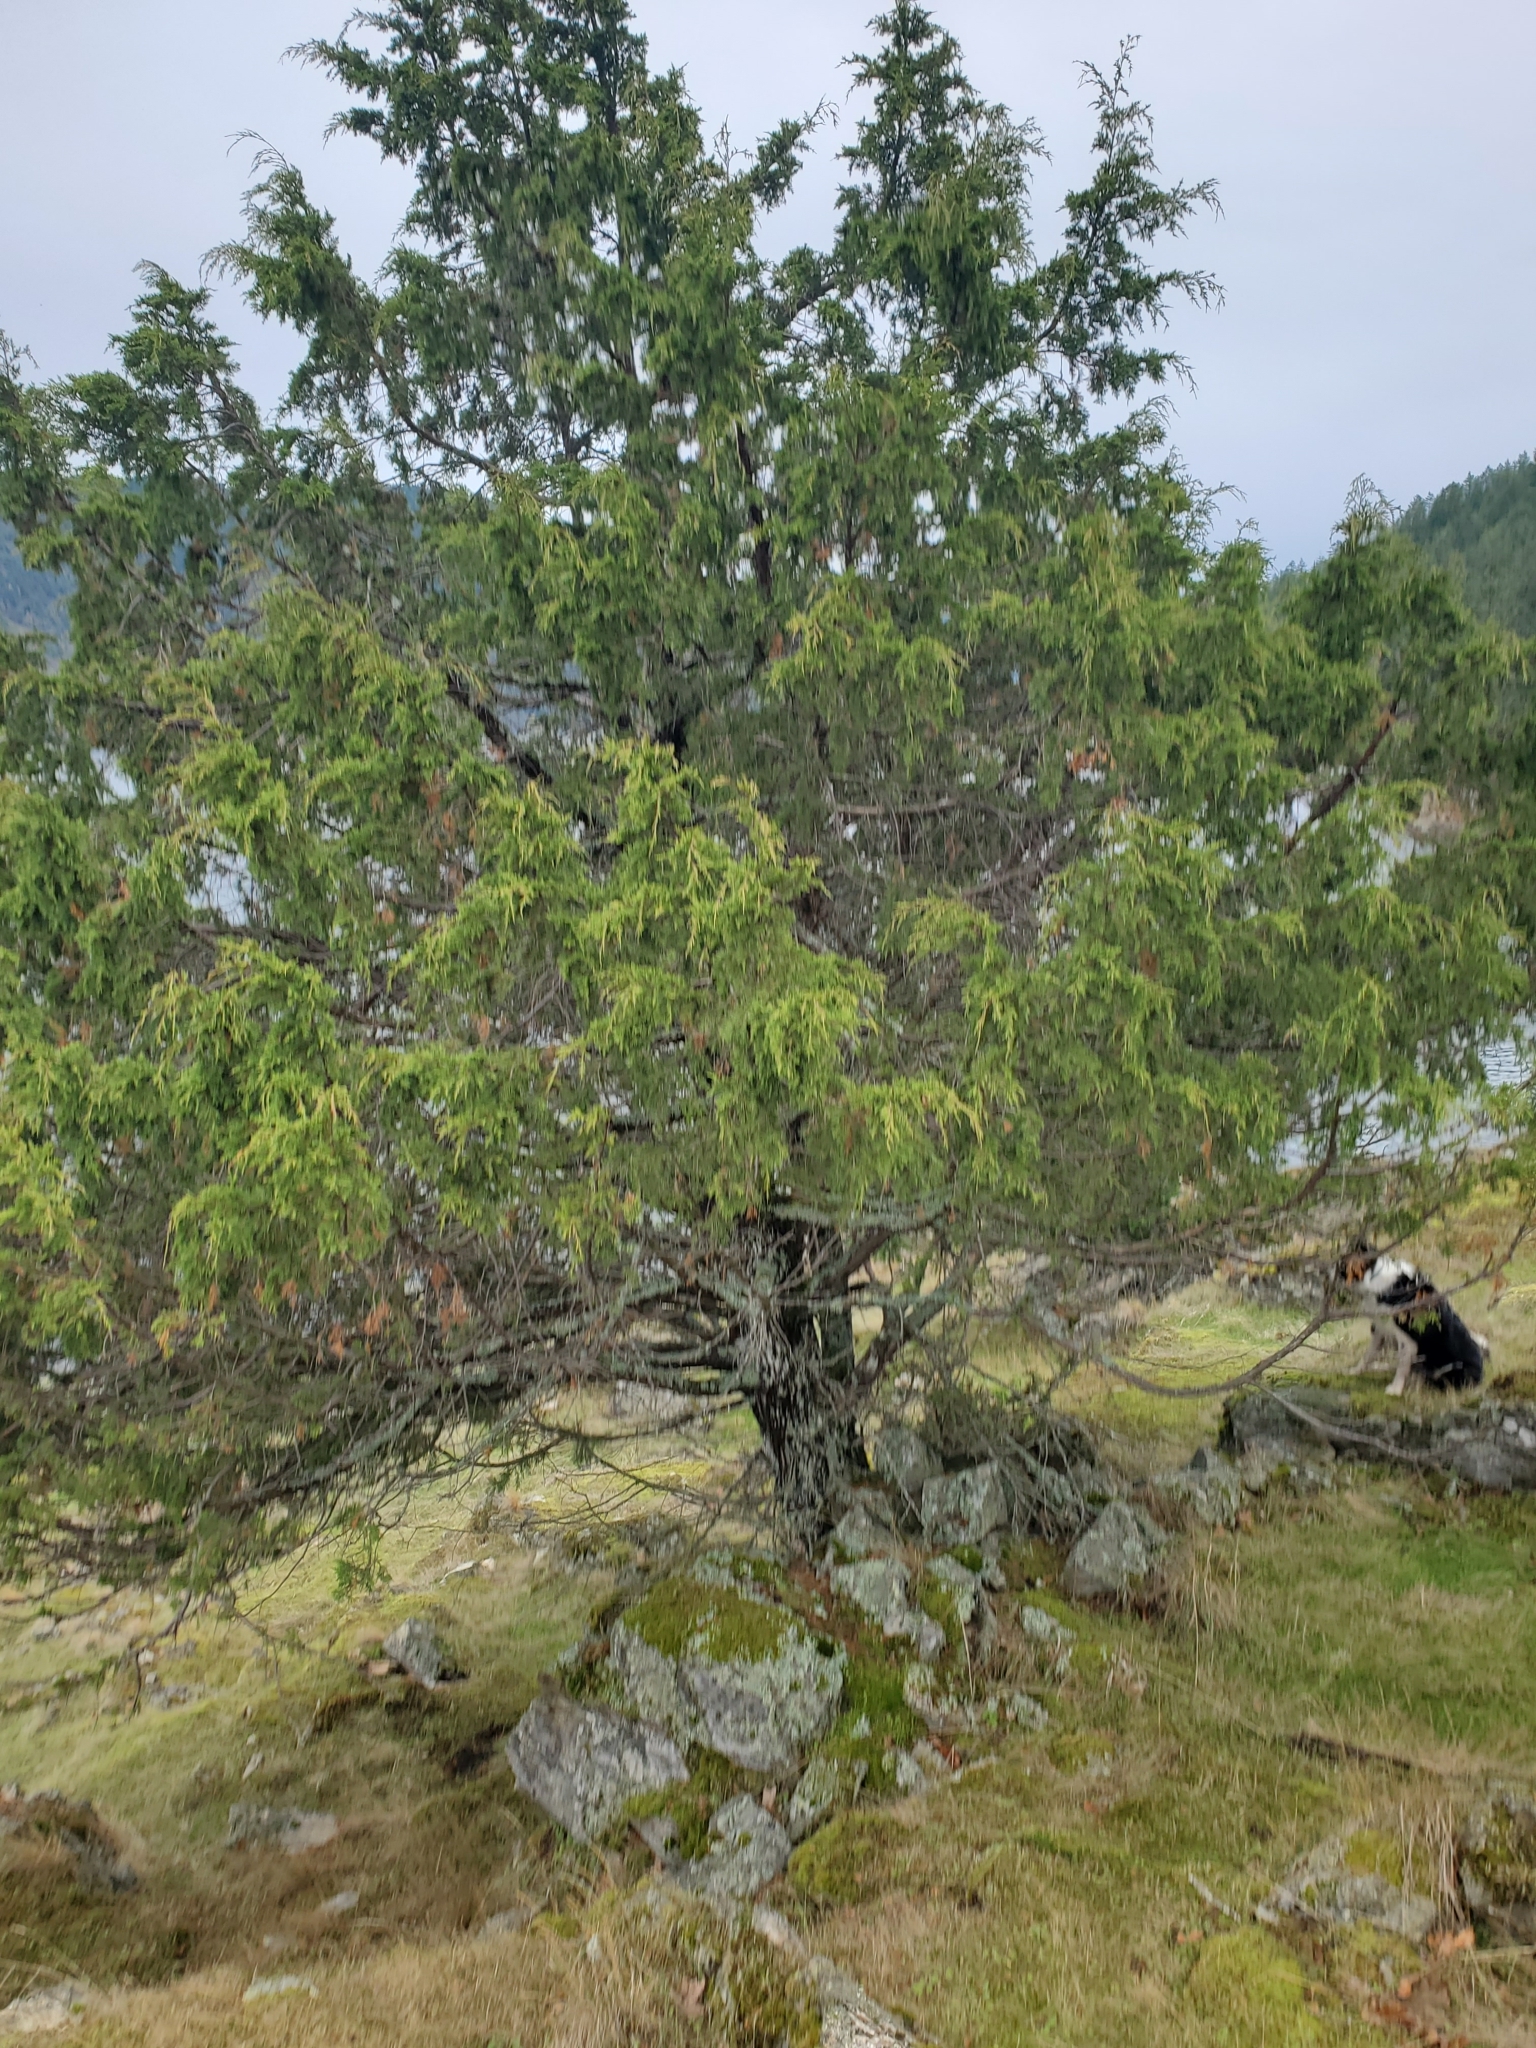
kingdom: Plantae
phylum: Tracheophyta
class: Pinopsida
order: Pinales
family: Cupressaceae
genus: Juniperus
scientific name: Juniperus scopulorum
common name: Rocky mountain juniper
